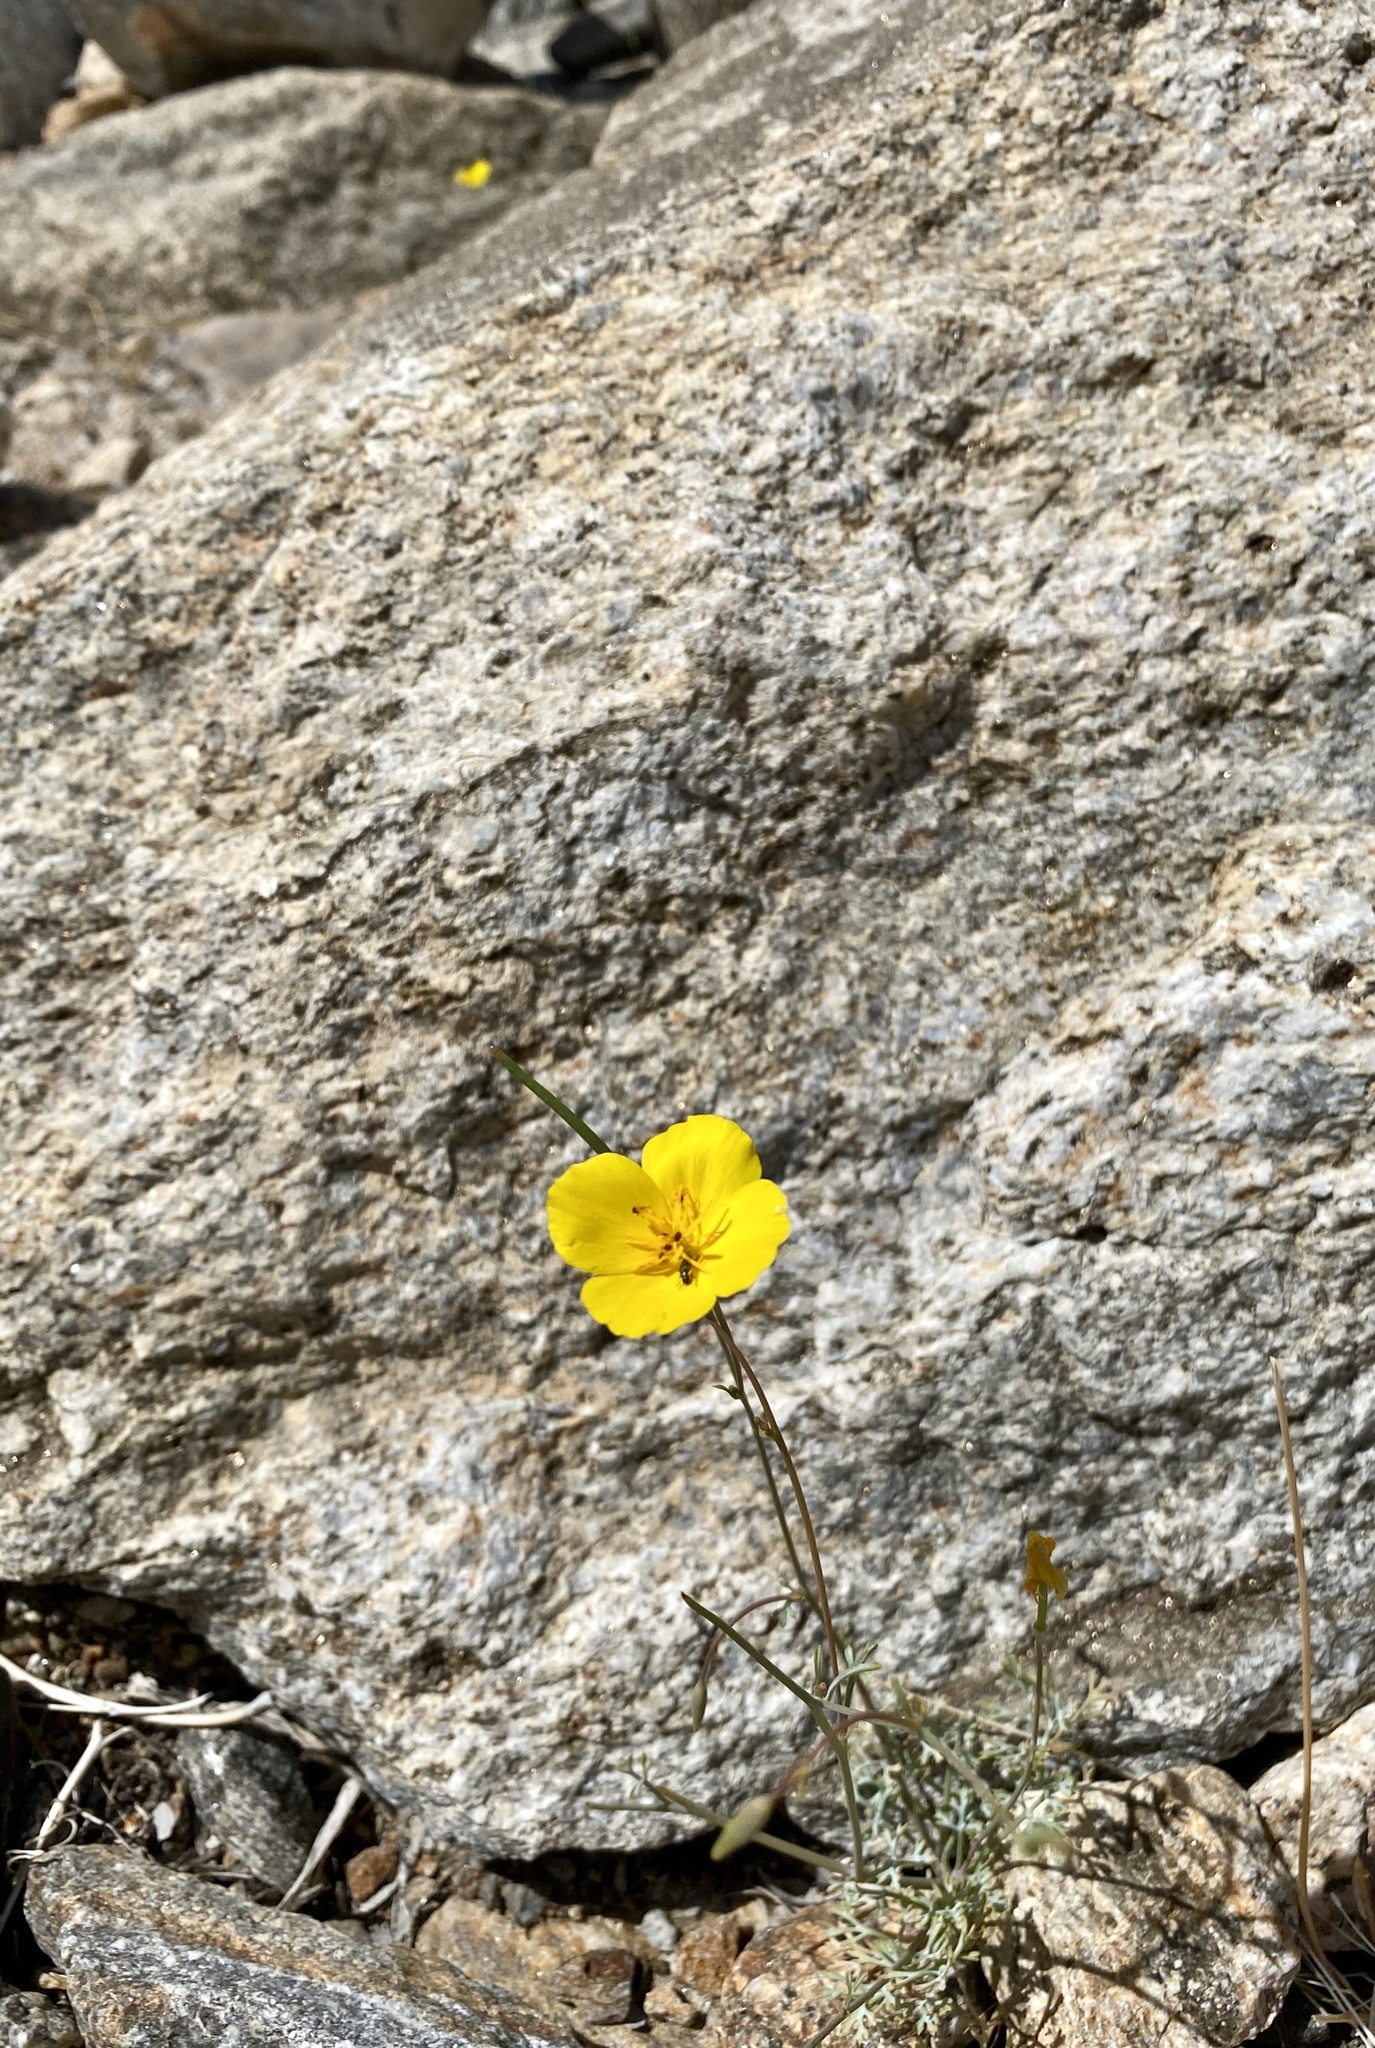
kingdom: Plantae
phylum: Tracheophyta
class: Magnoliopsida
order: Ranunculales
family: Papaveraceae
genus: Eschscholzia
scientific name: Eschscholzia parishii
